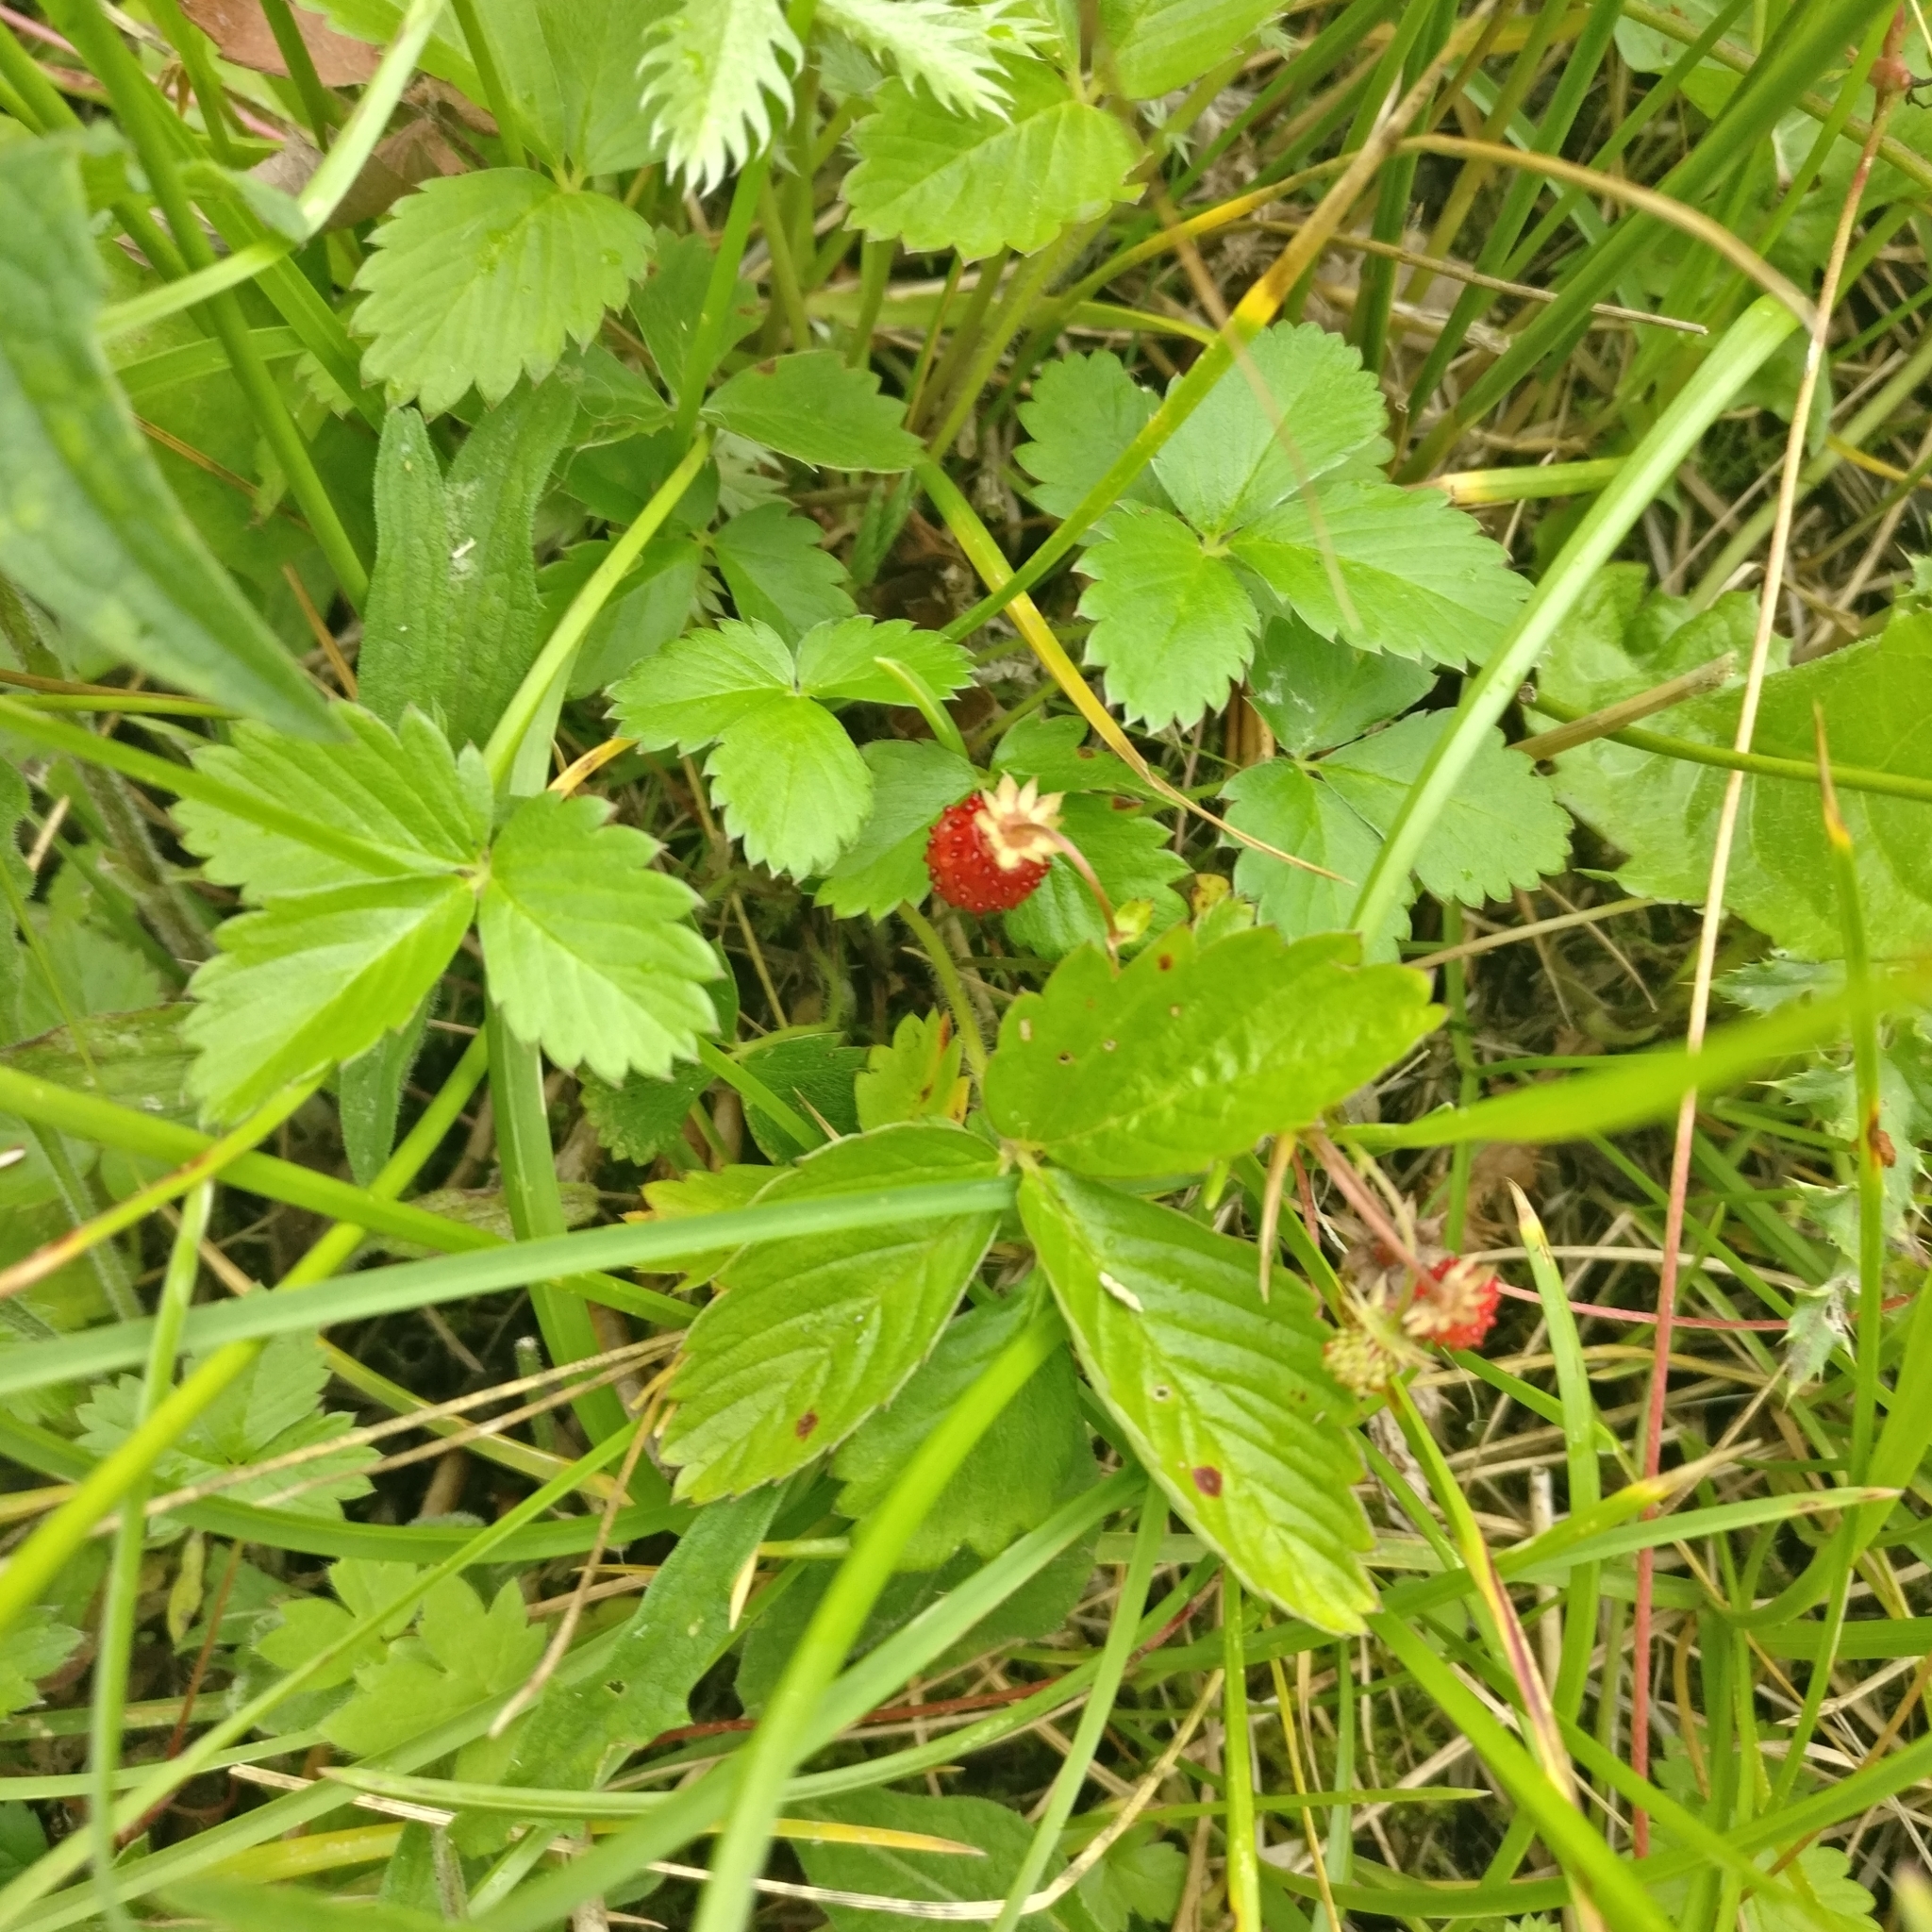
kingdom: Plantae
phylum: Tracheophyta
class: Magnoliopsida
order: Rosales
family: Rosaceae
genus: Fragaria
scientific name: Fragaria vesca
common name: Wild strawberry
